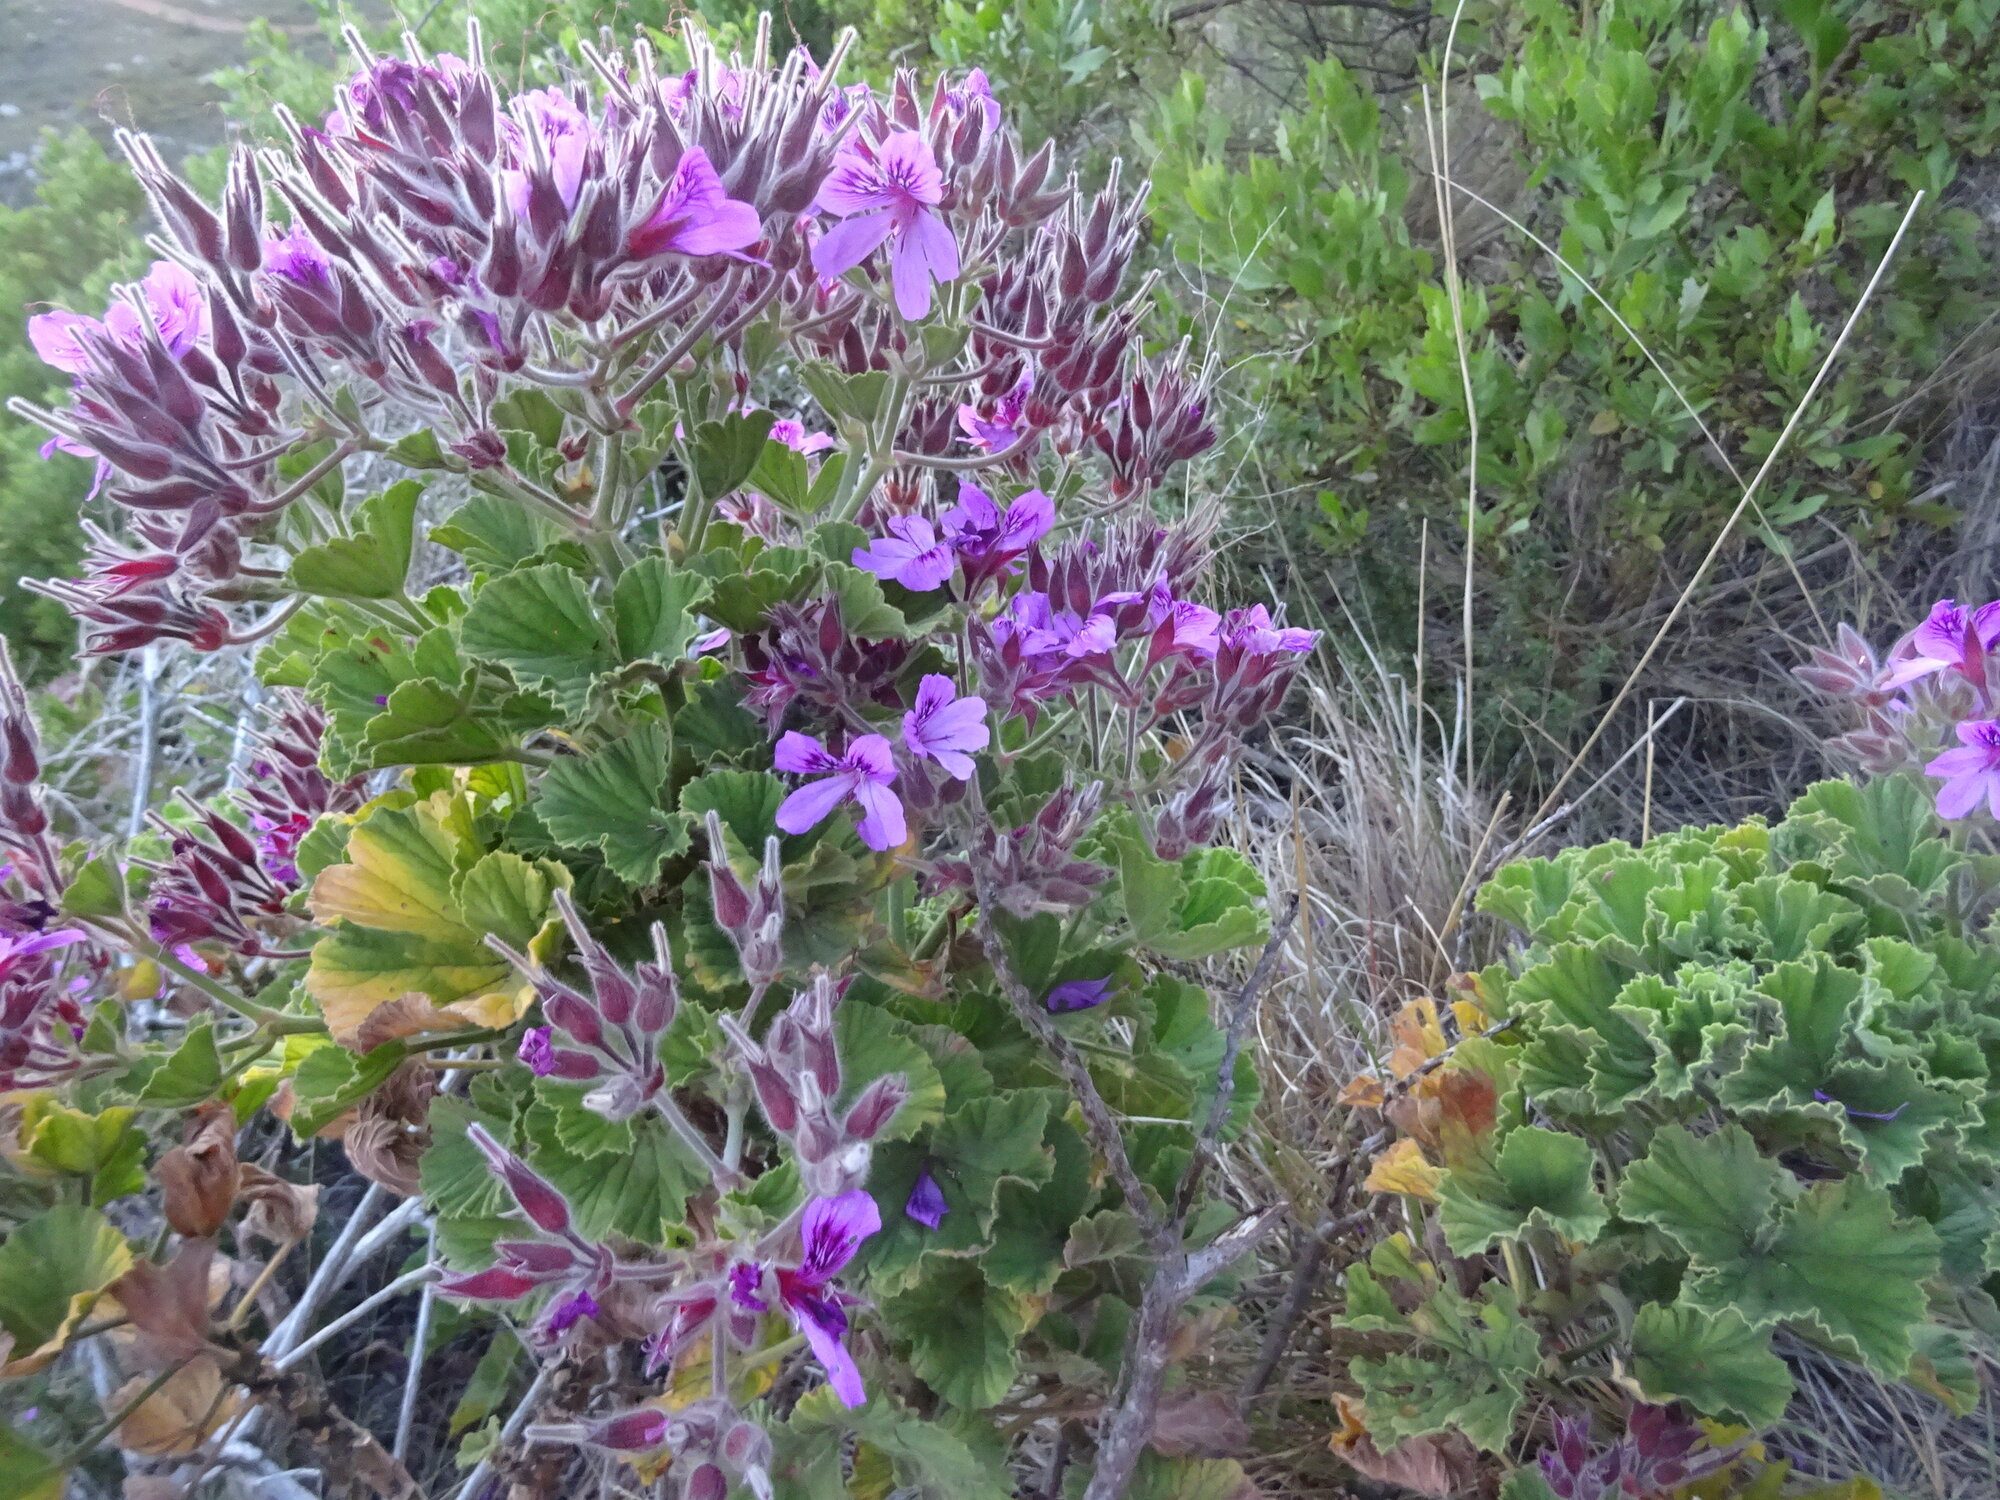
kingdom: Plantae
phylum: Tracheophyta
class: Magnoliopsida
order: Geraniales
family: Geraniaceae
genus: Pelargonium
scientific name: Pelargonium cucullatum
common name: Tree pelargonium
